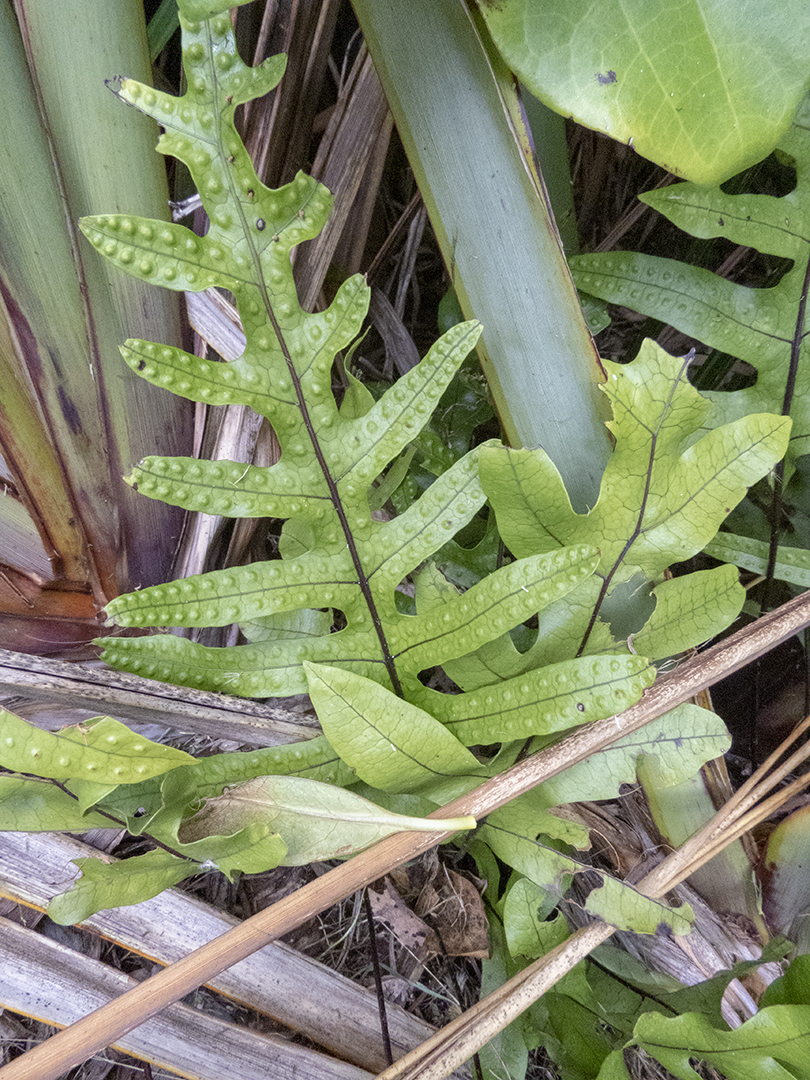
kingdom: Plantae
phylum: Tracheophyta
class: Polypodiopsida
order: Polypodiales
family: Polypodiaceae
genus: Lecanopteris
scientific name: Lecanopteris pustulata
